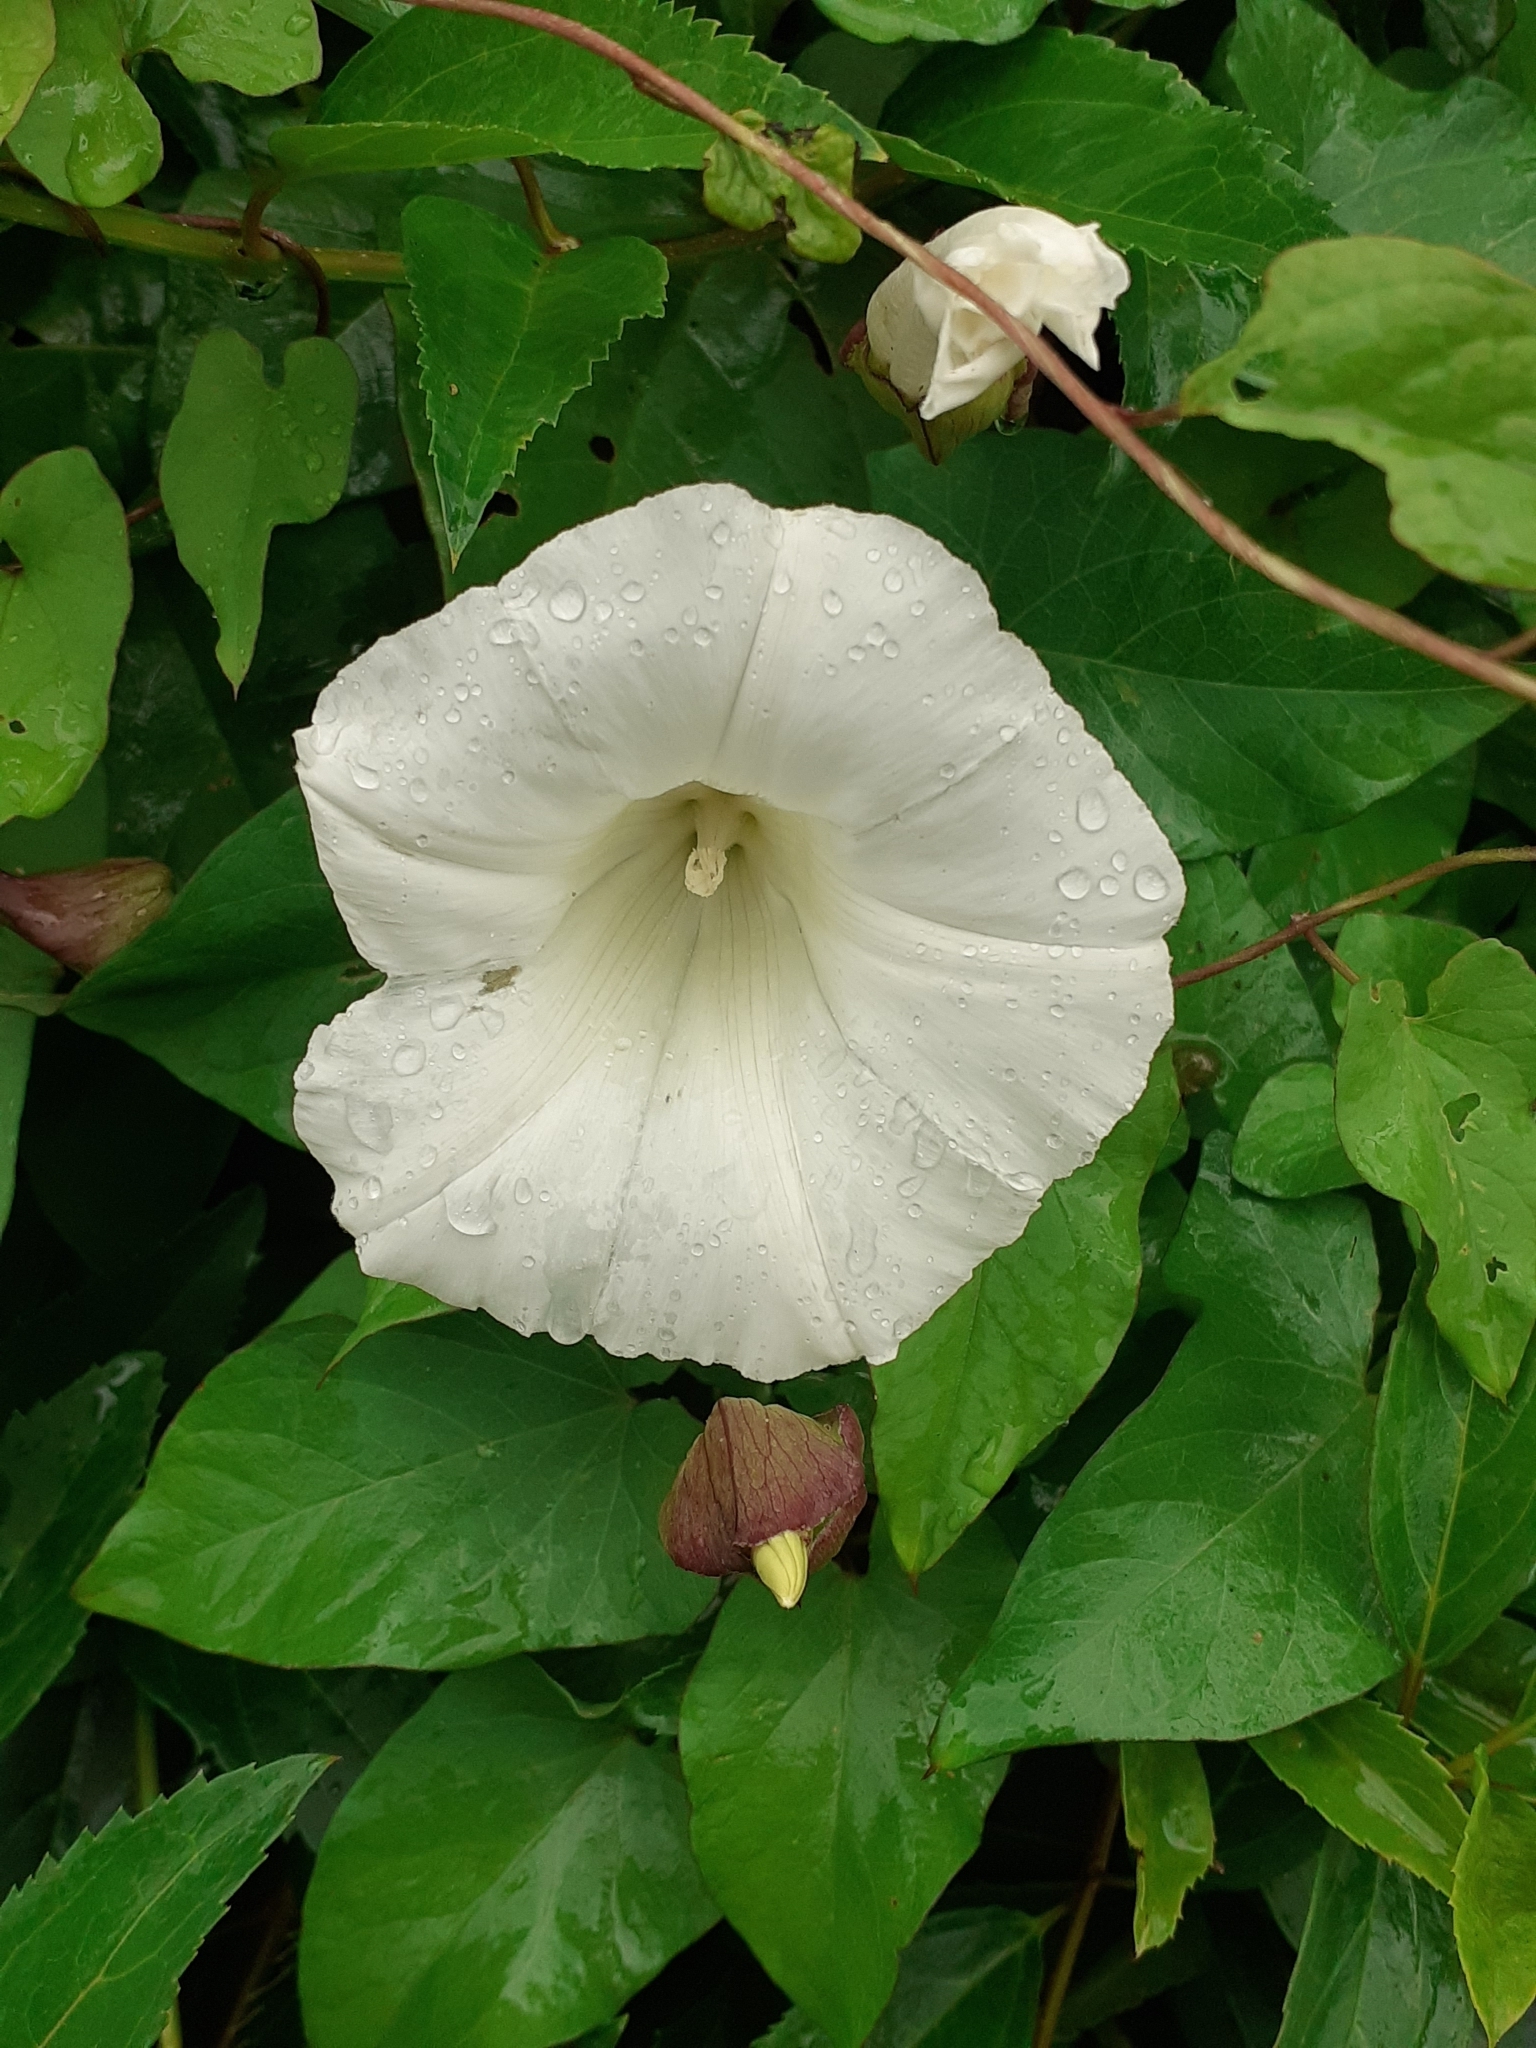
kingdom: Plantae
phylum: Tracheophyta
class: Magnoliopsida
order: Solanales
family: Convolvulaceae
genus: Calystegia
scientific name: Calystegia silvatica
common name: Large bindweed
